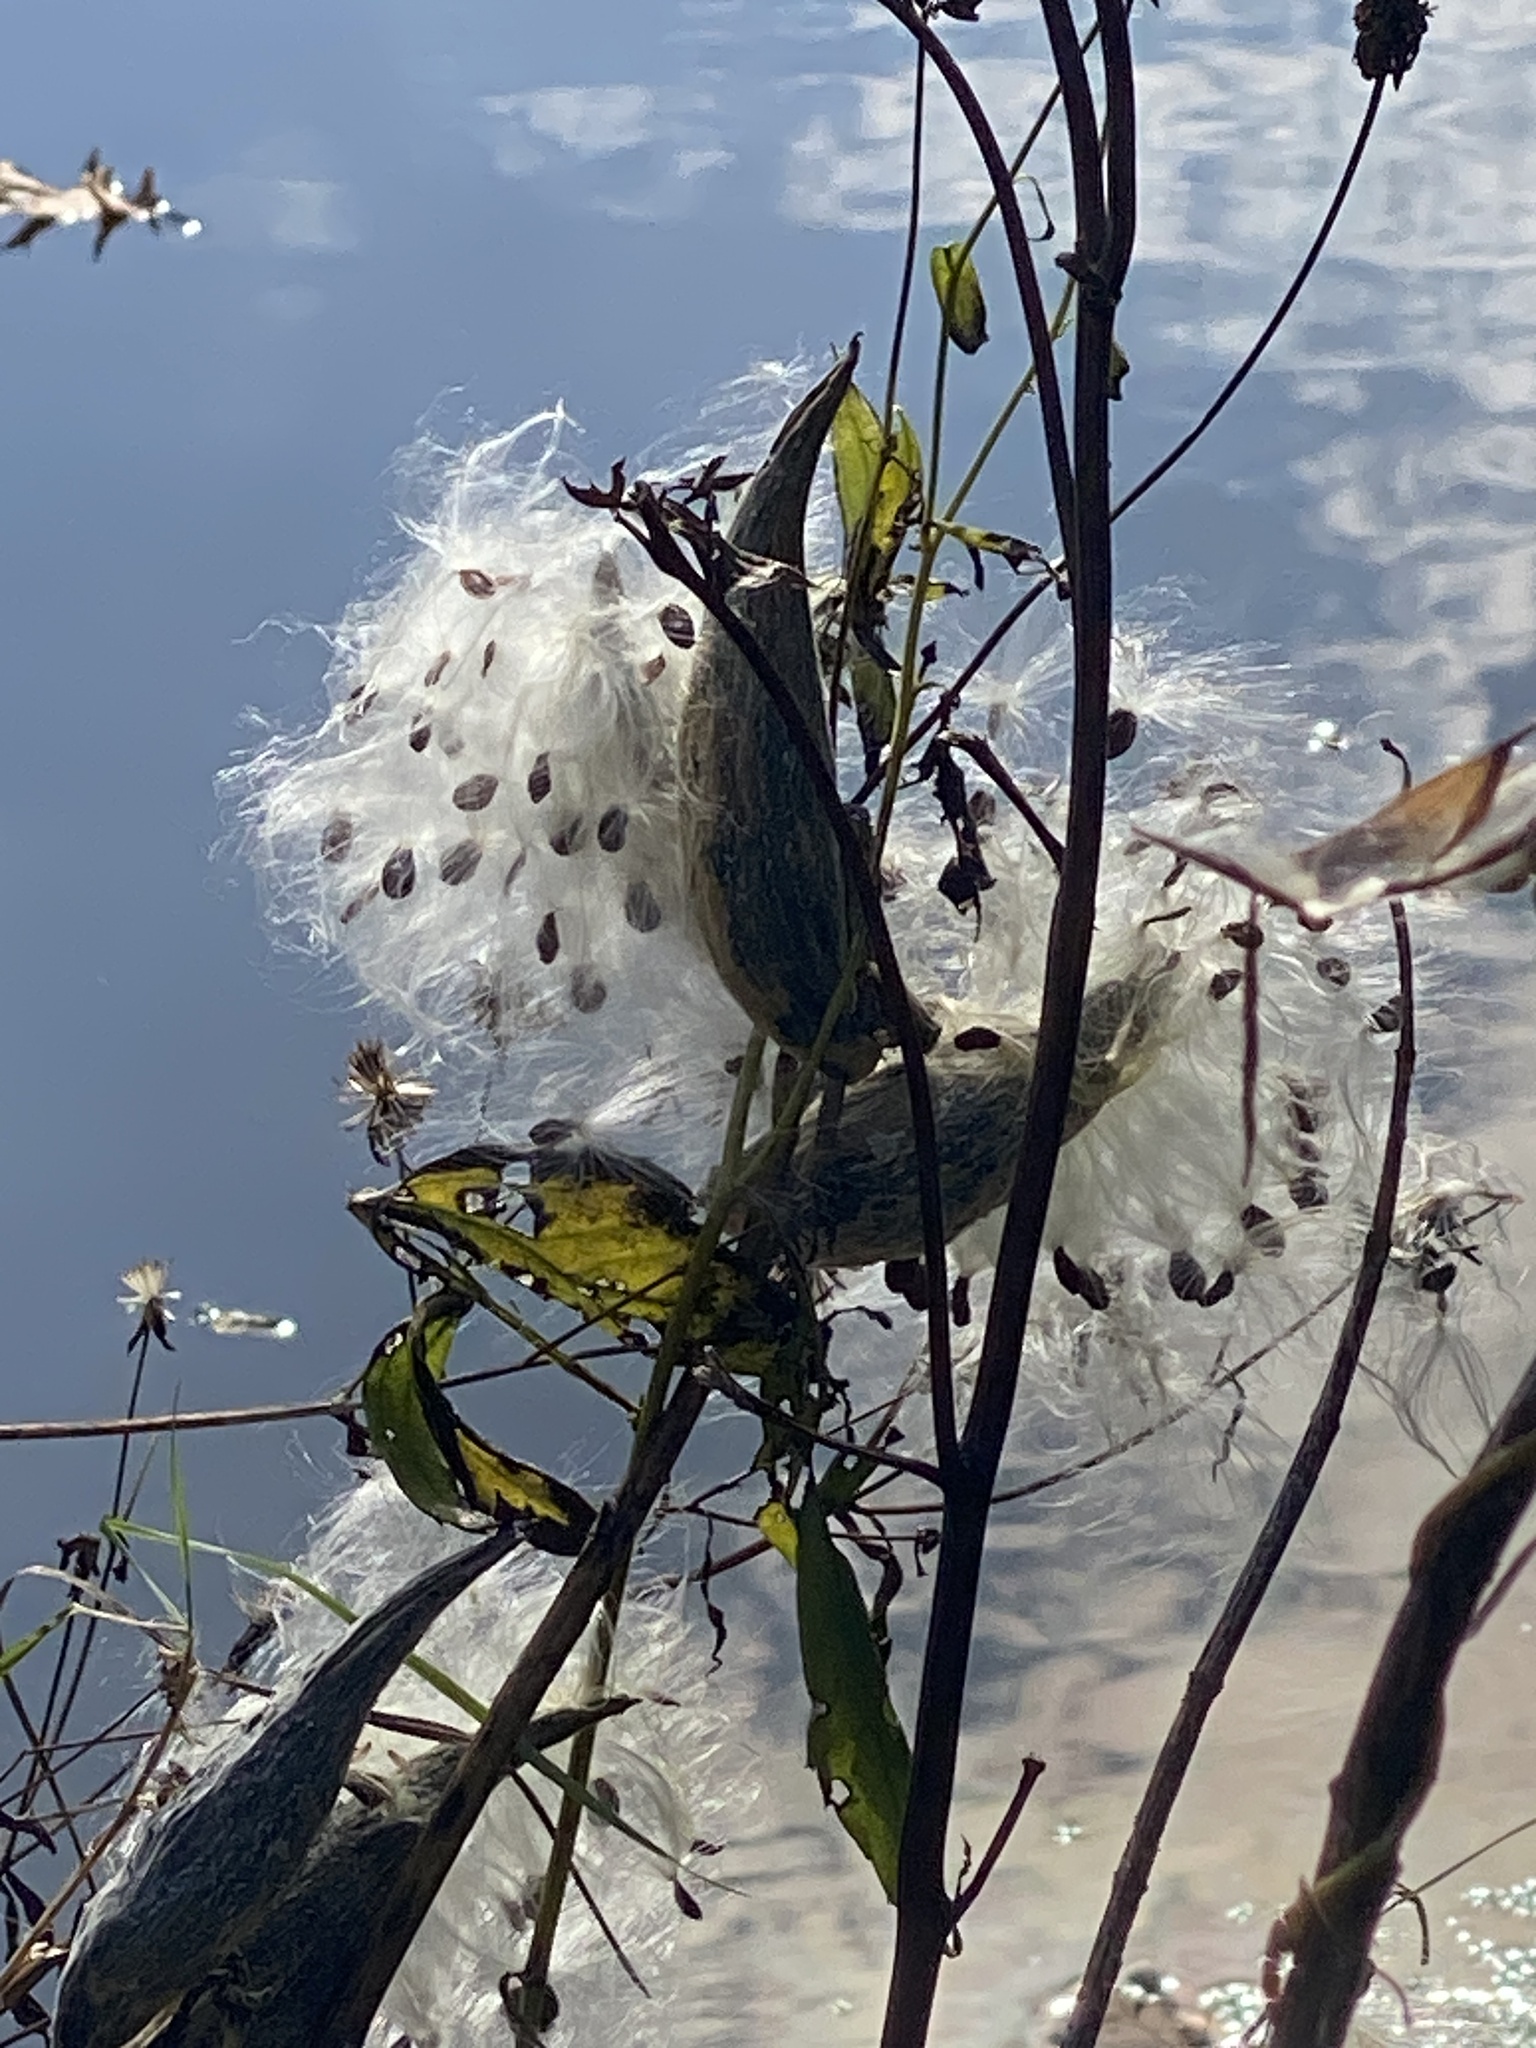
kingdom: Plantae
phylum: Tracheophyta
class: Magnoliopsida
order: Gentianales
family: Apocynaceae
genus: Asclepias
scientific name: Asclepias syriaca
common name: Common milkweed
